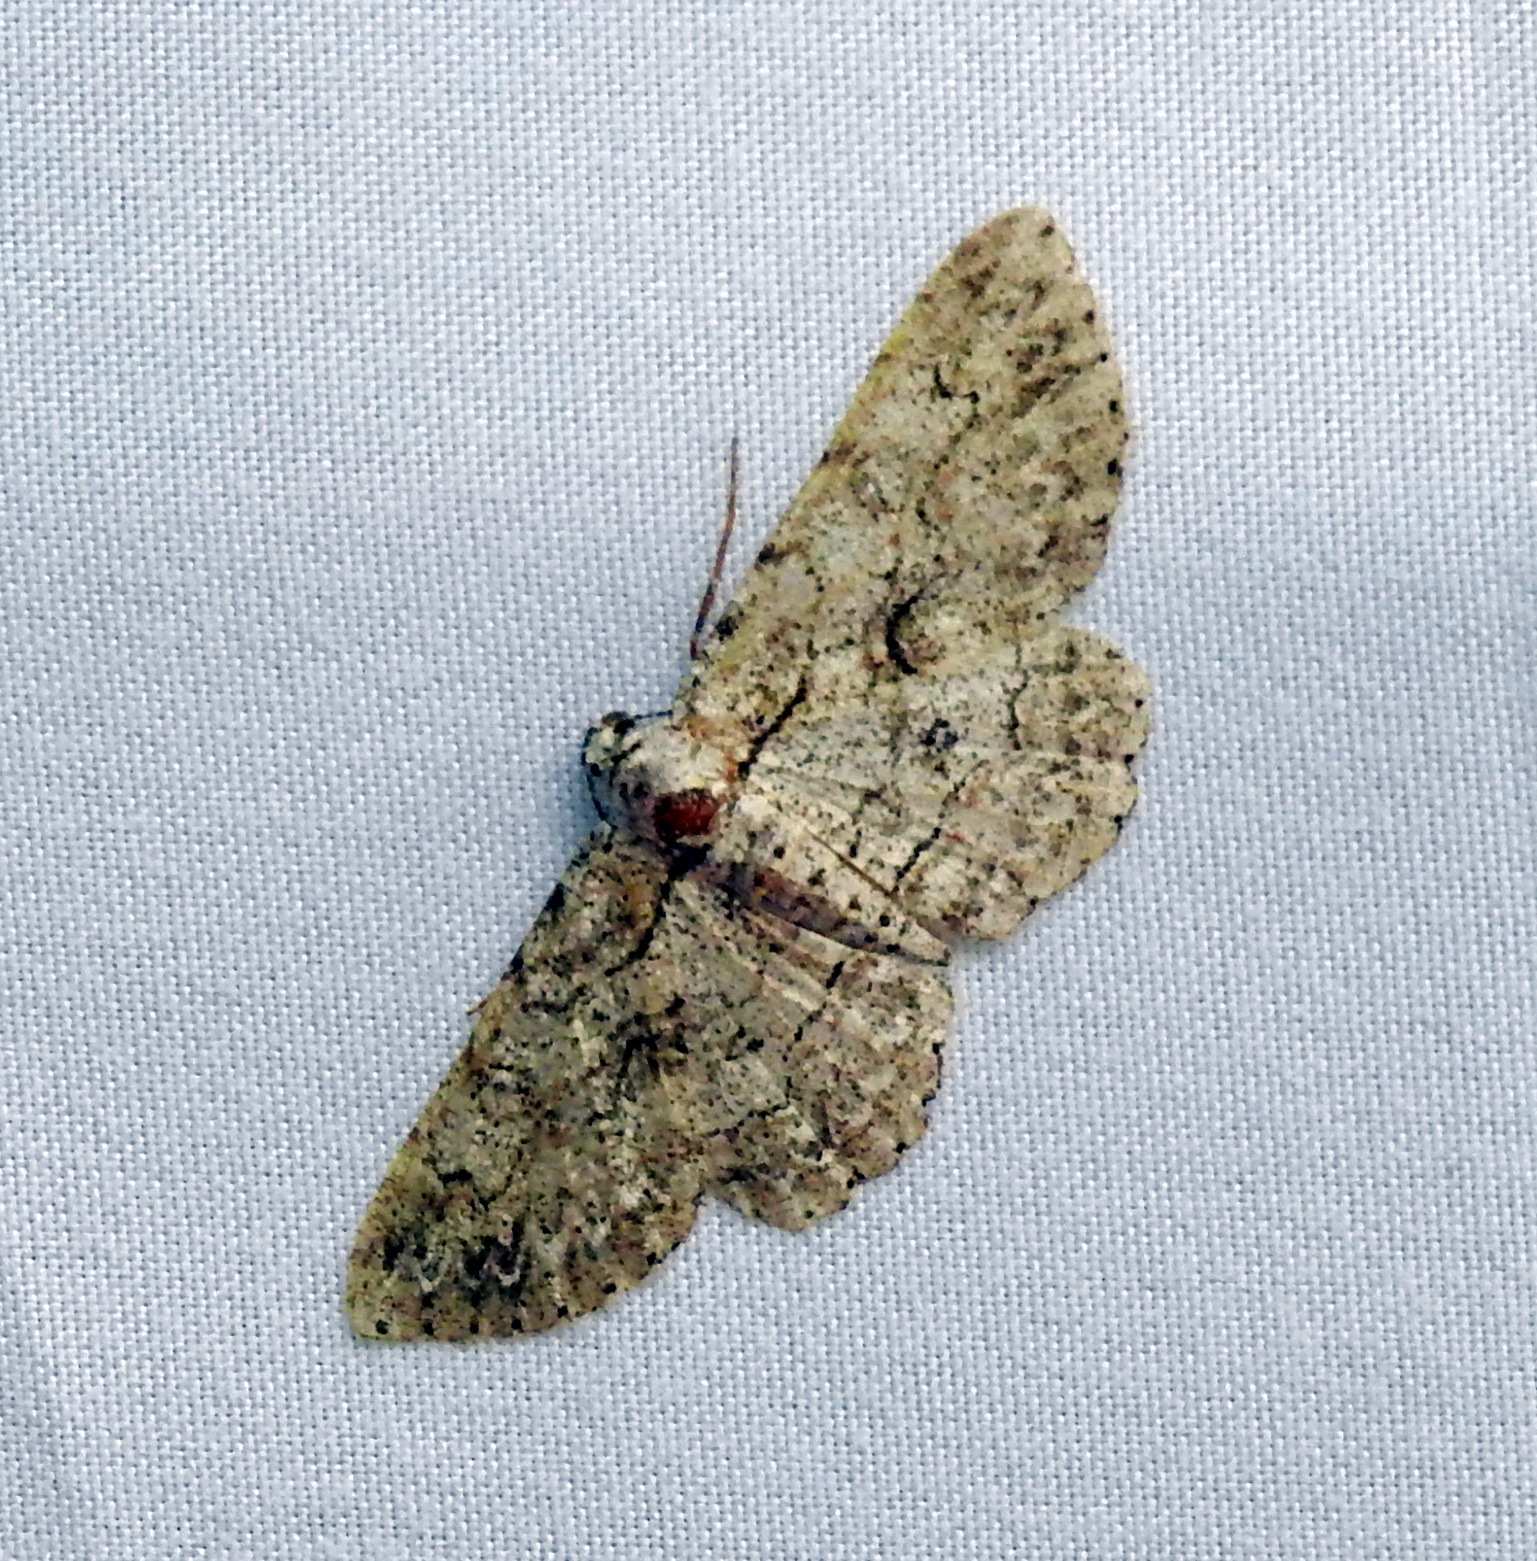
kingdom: Animalia
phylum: Arthropoda
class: Insecta
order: Lepidoptera
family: Geometridae
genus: Iridopsis
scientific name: Iridopsis defectaria
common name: Brown-shaded gray
